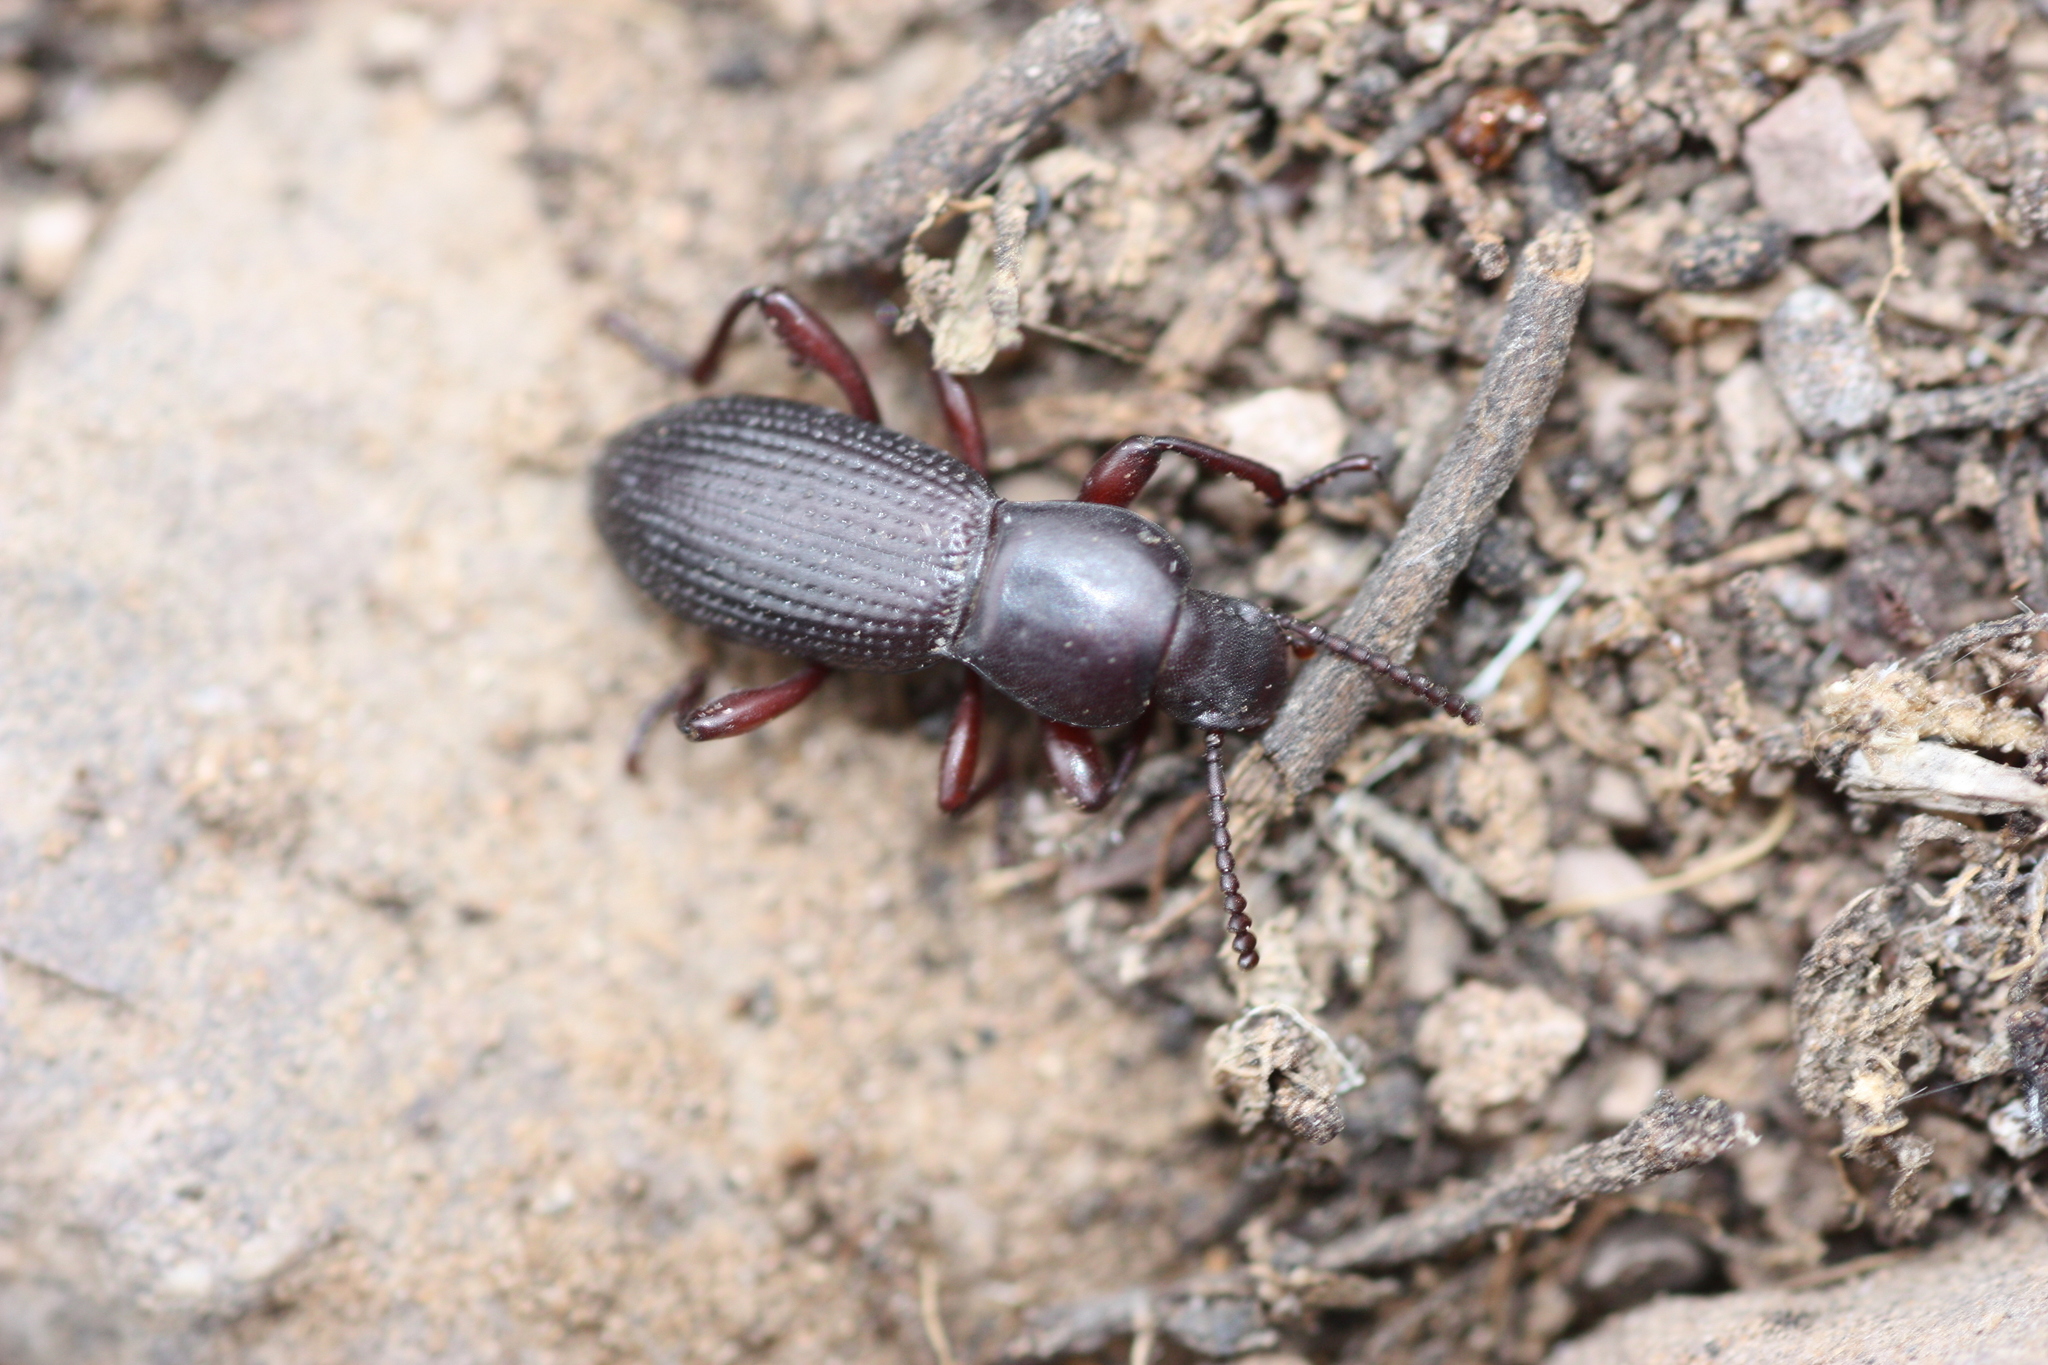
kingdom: Animalia
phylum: Arthropoda
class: Insecta
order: Coleoptera
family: Tenebrionidae
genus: Argoporis
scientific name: Argoporis rufipes
